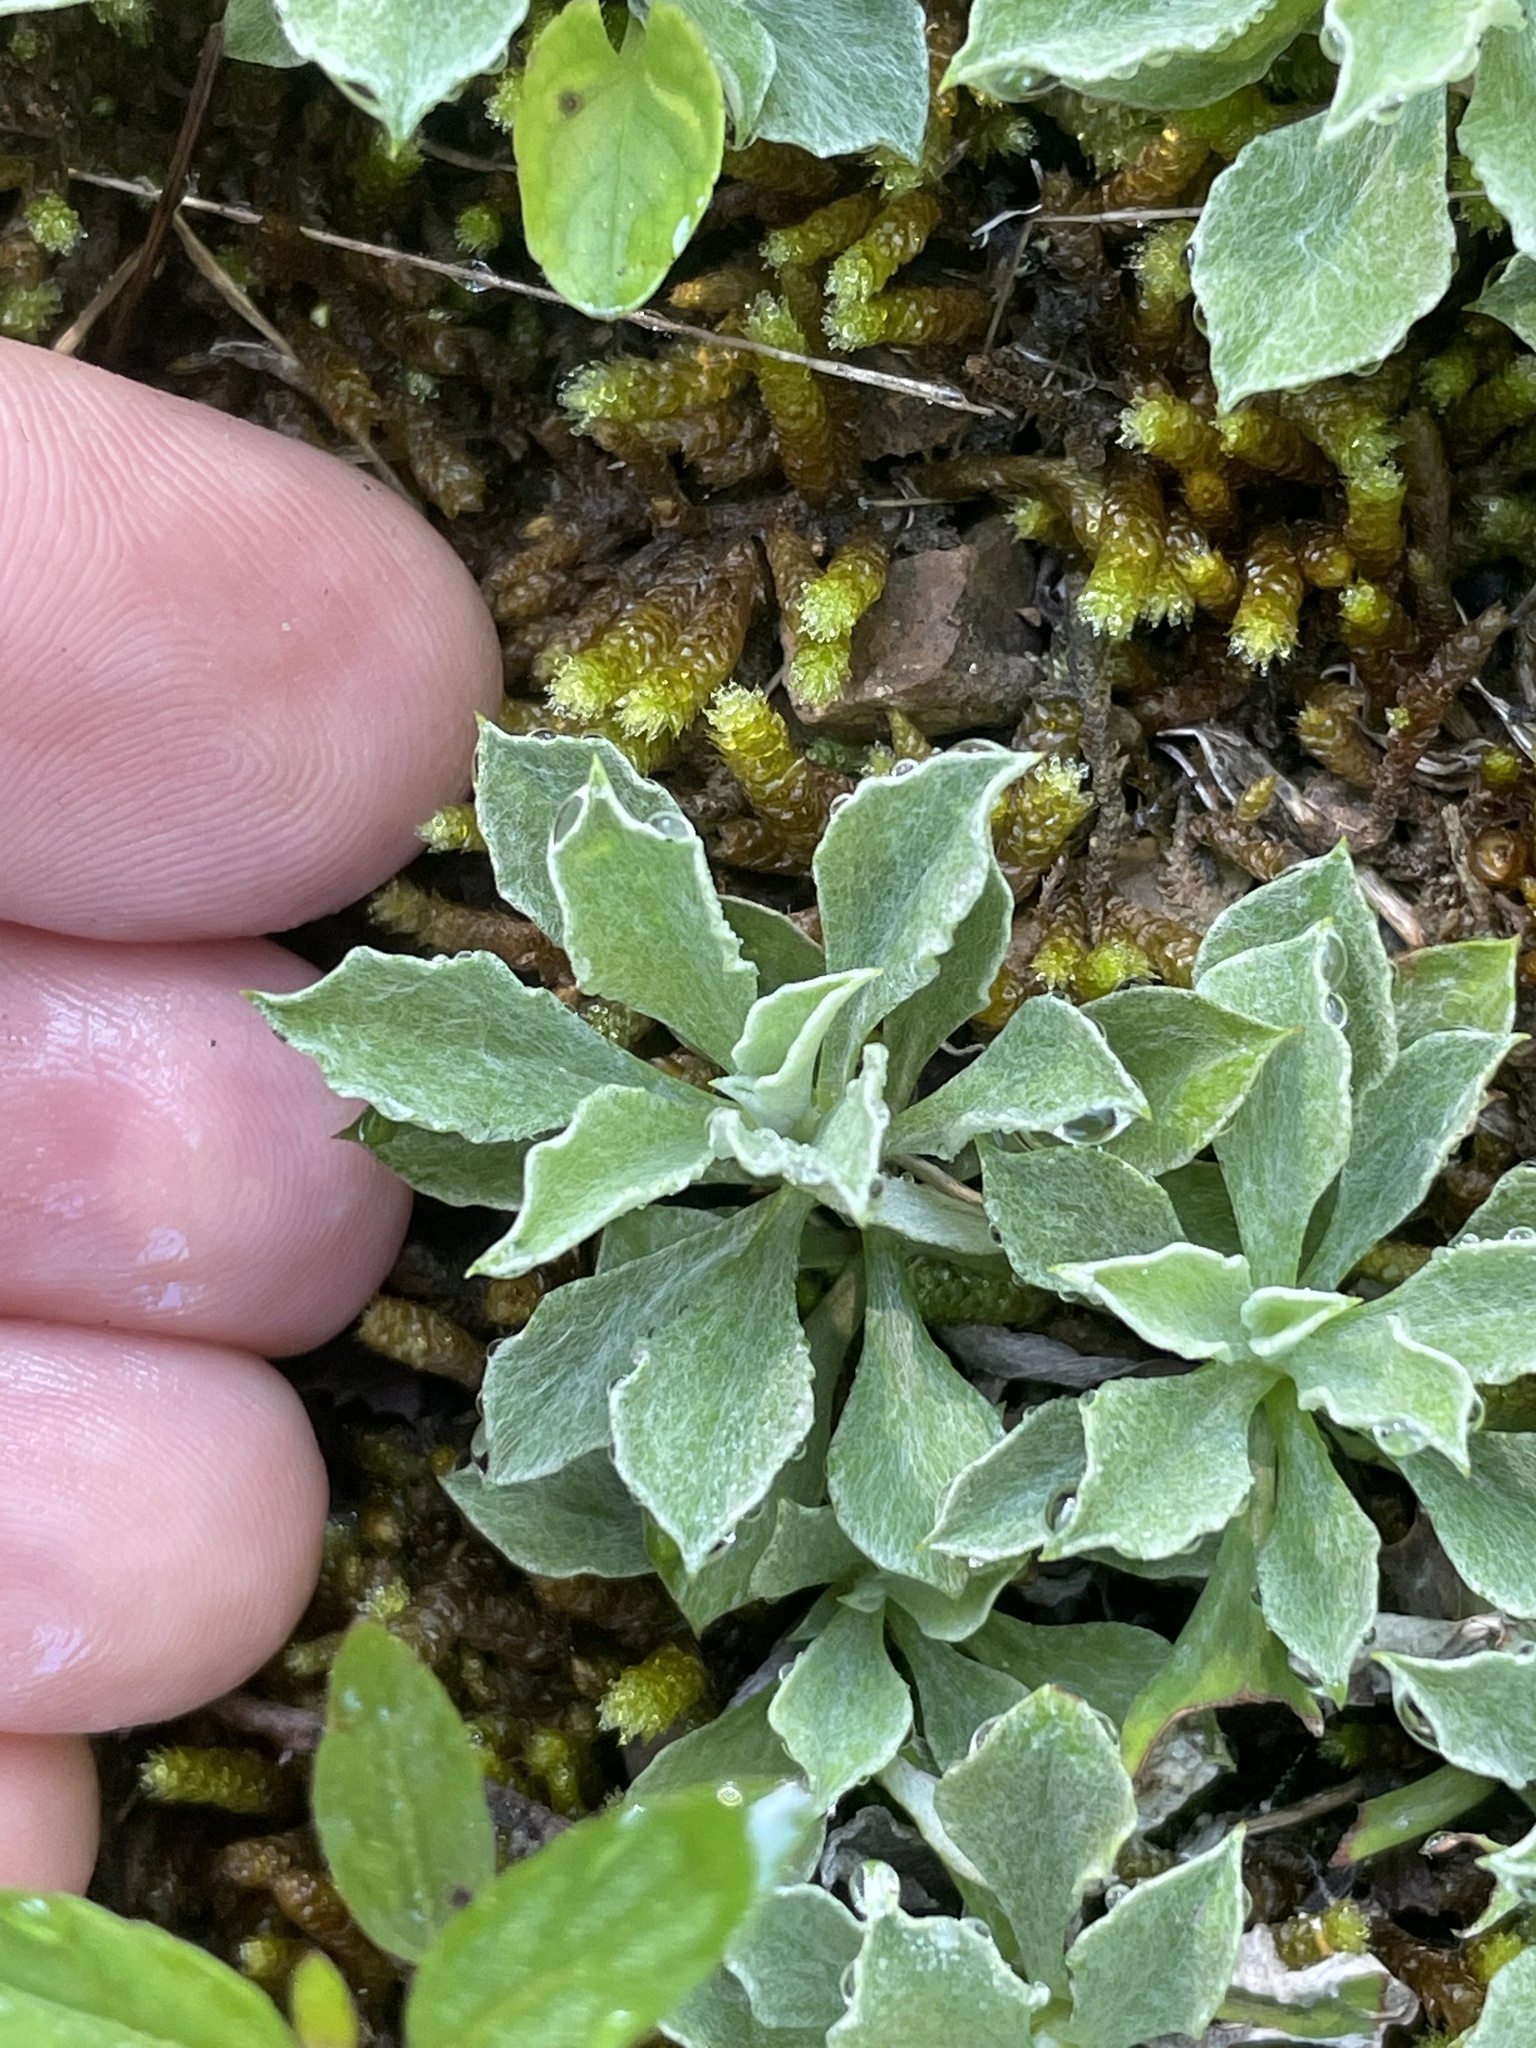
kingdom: Plantae
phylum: Tracheophyta
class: Magnoliopsida
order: Asterales
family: Asteraceae
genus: Antennaria
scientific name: Antennaria howellii
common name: Howell's pussytoes
